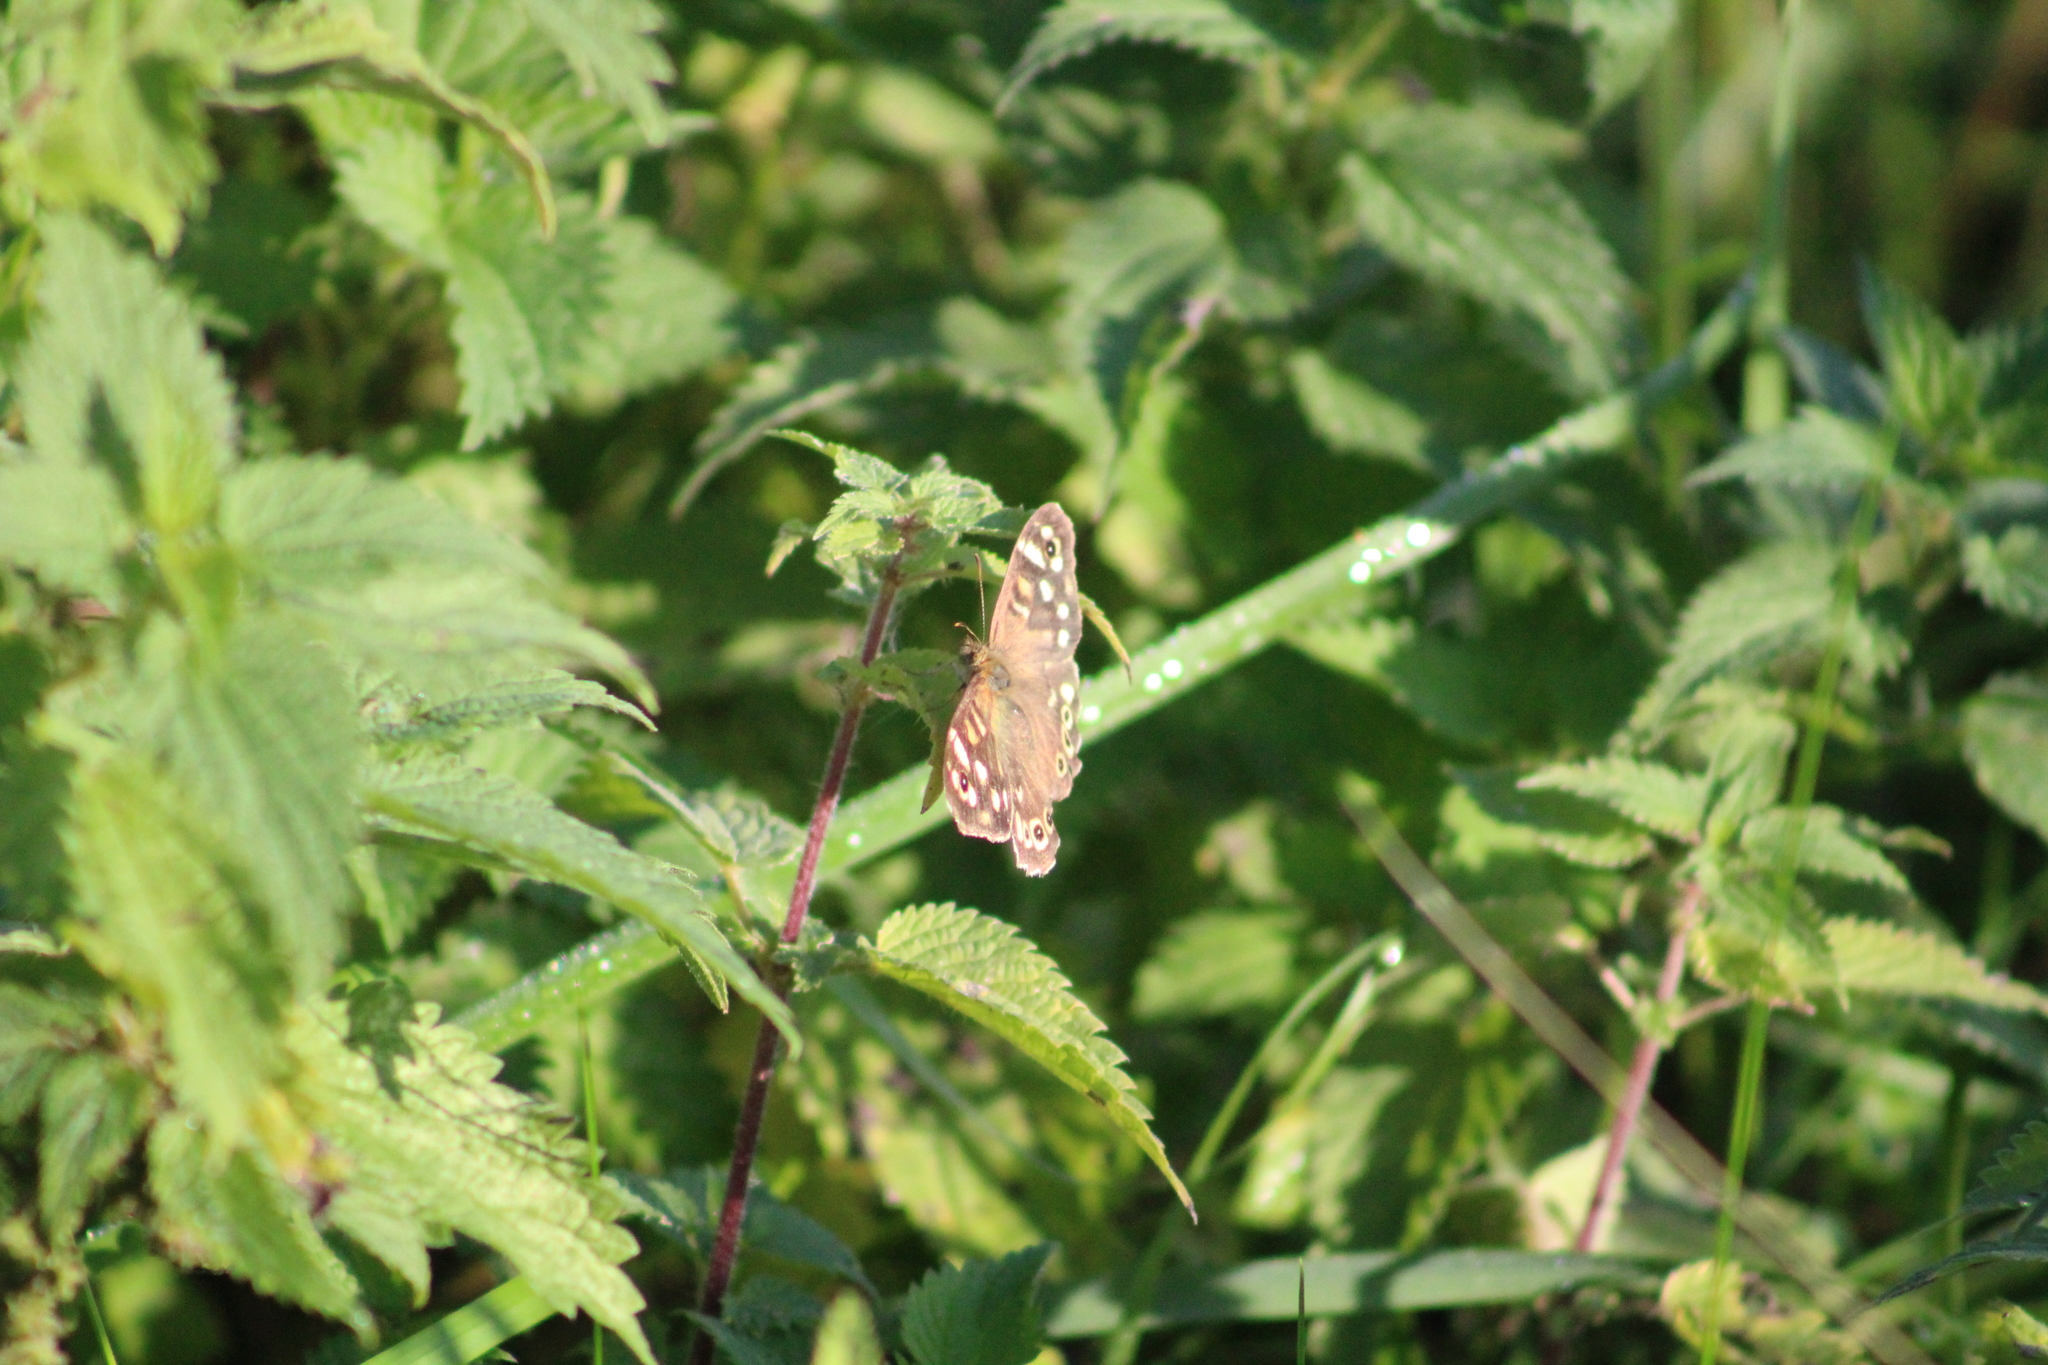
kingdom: Animalia
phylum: Arthropoda
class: Insecta
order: Lepidoptera
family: Nymphalidae
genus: Pararge
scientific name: Pararge aegeria
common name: Speckled wood
